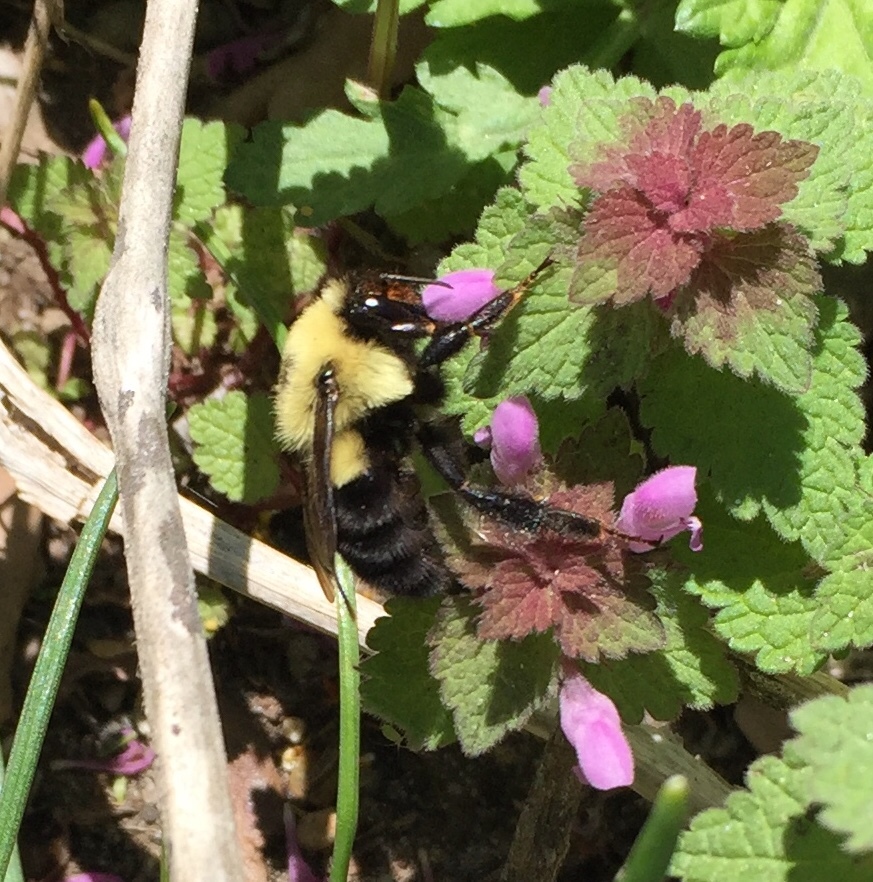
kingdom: Animalia
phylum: Arthropoda
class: Insecta
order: Hymenoptera
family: Apidae
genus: Bombus
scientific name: Bombus bimaculatus
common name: Two-spotted bumble bee
